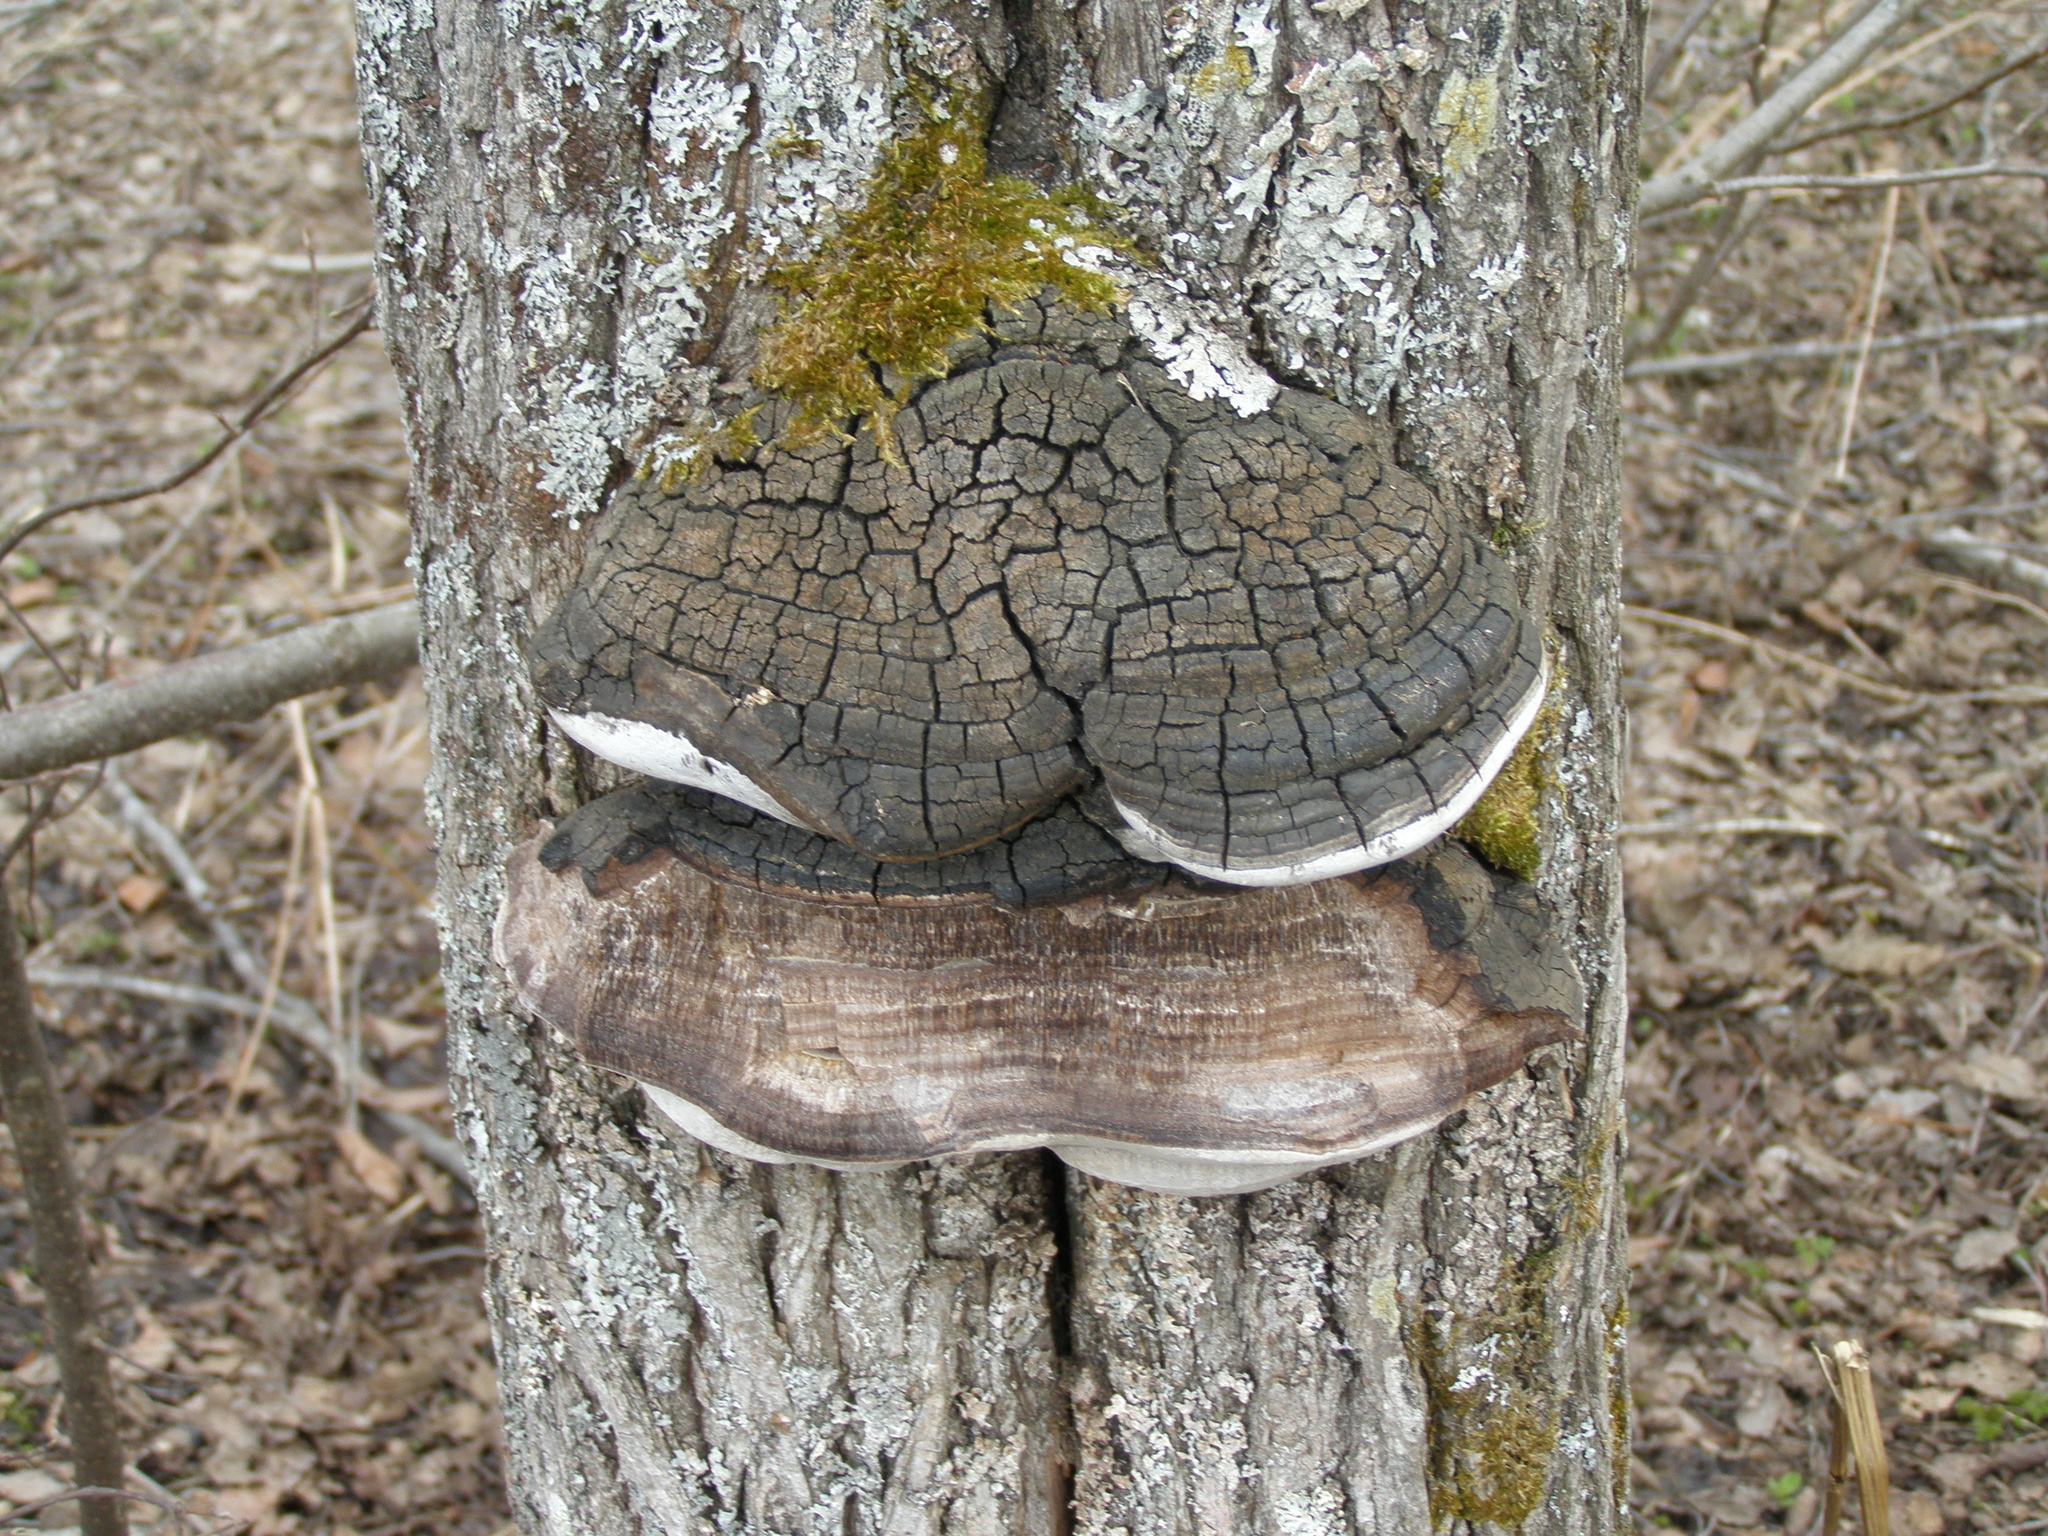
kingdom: Fungi
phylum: Basidiomycota
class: Agaricomycetes
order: Hymenochaetales
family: Hymenochaetaceae
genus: Phellinus
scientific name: Phellinus tremulae
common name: Aspen bracket
